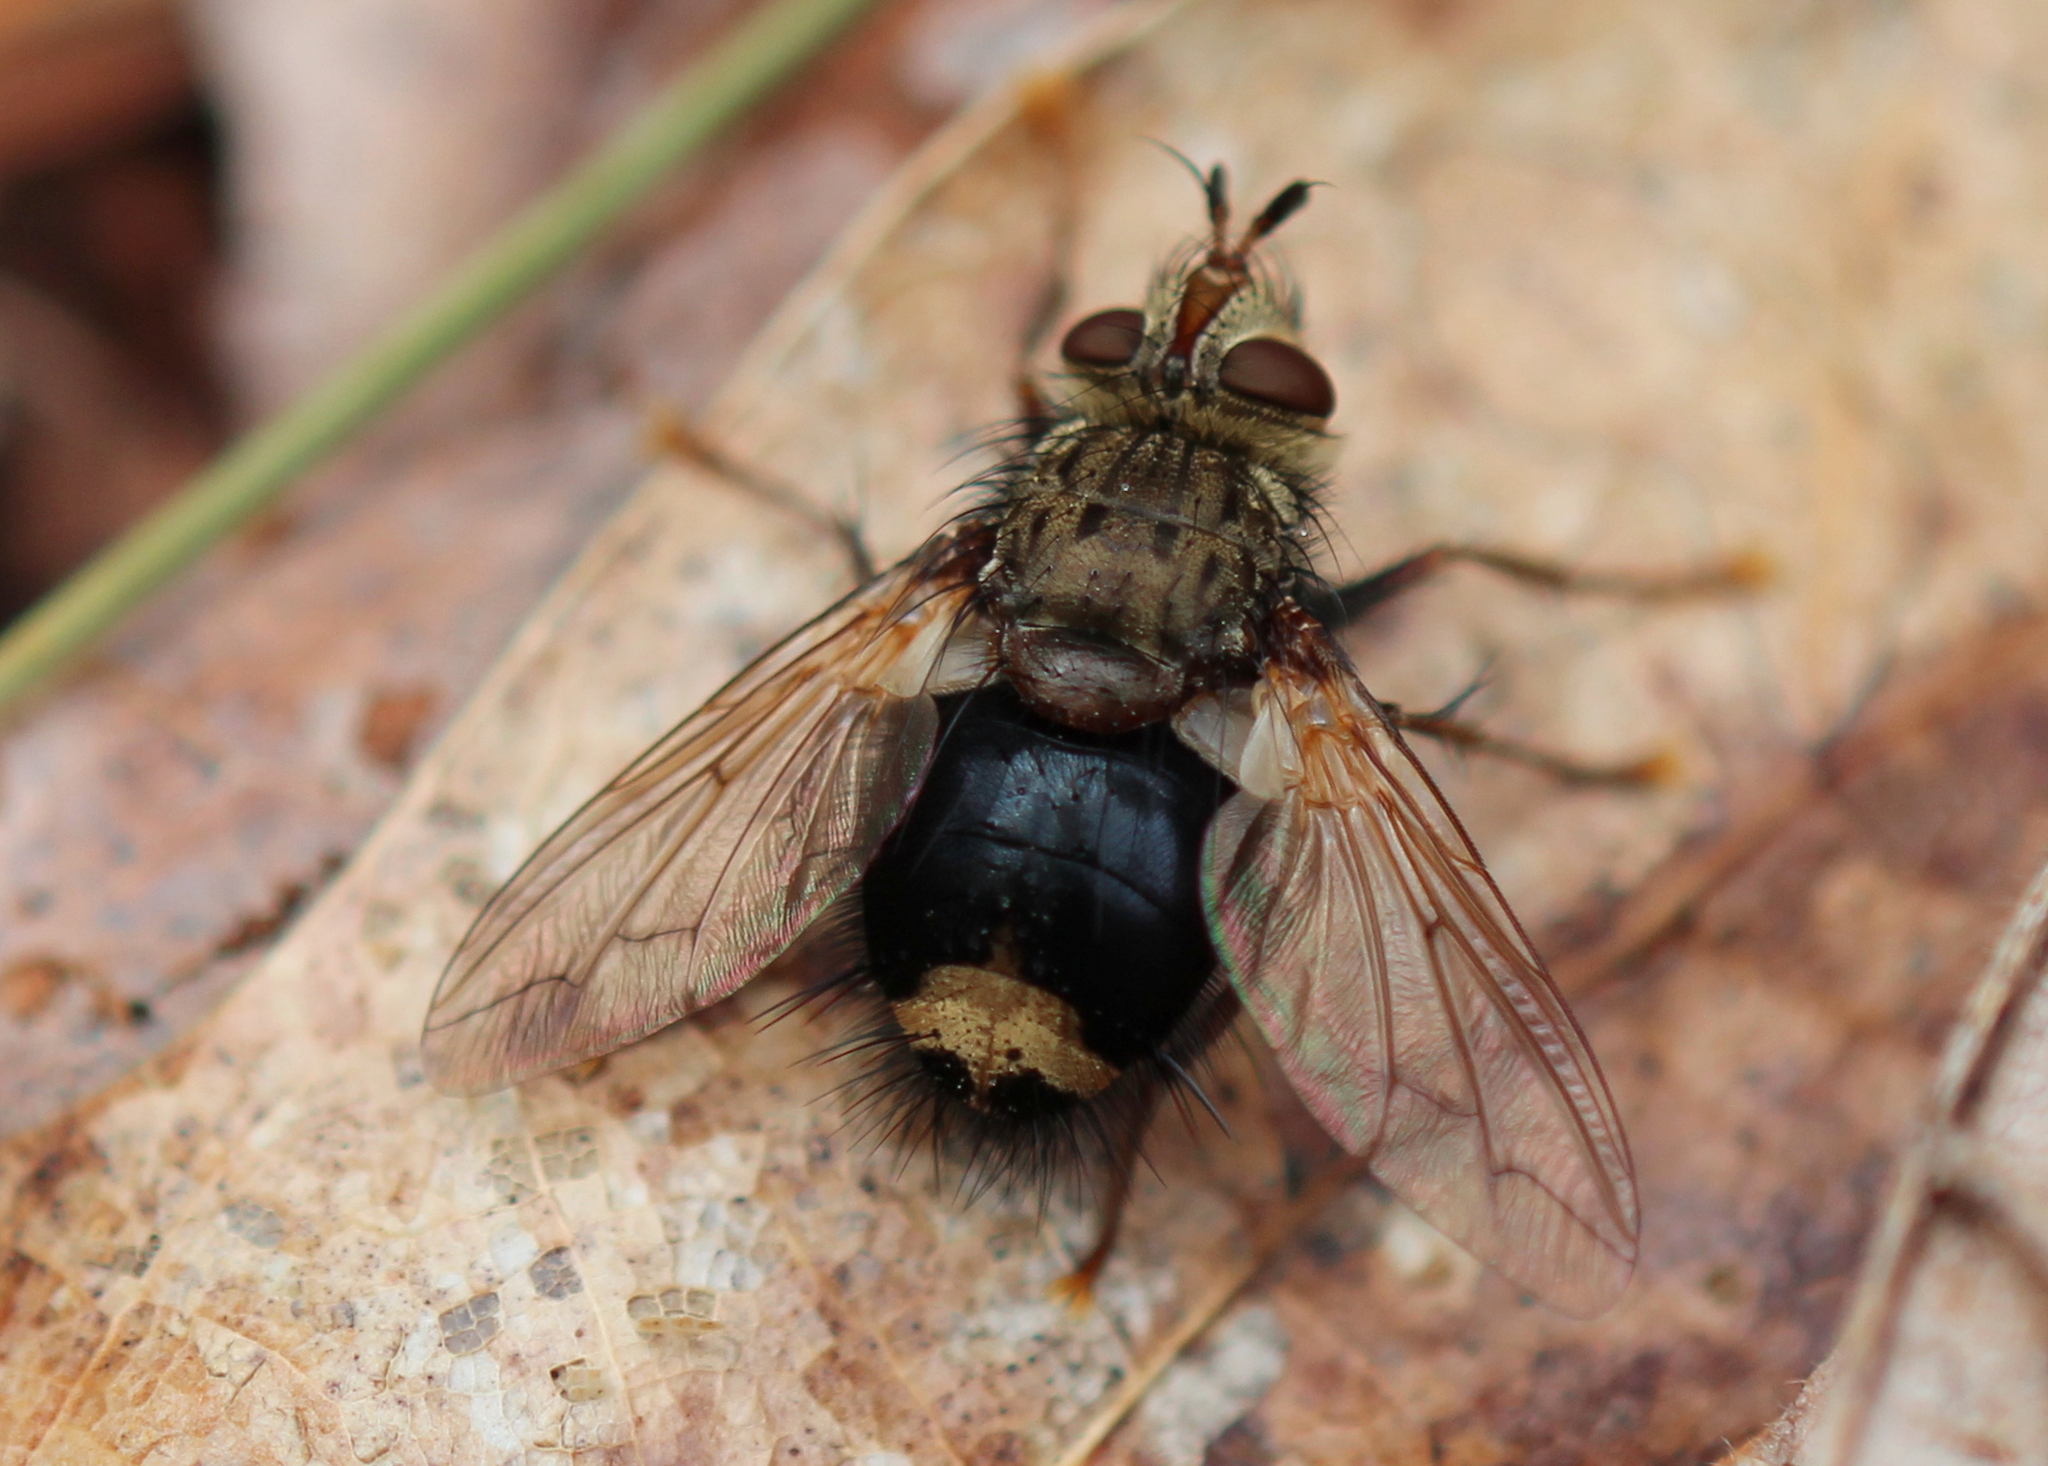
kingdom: Animalia
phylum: Arthropoda
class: Insecta
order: Diptera
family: Tachinidae
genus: Epalpus
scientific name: Epalpus signifer
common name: Early tachinid fly
